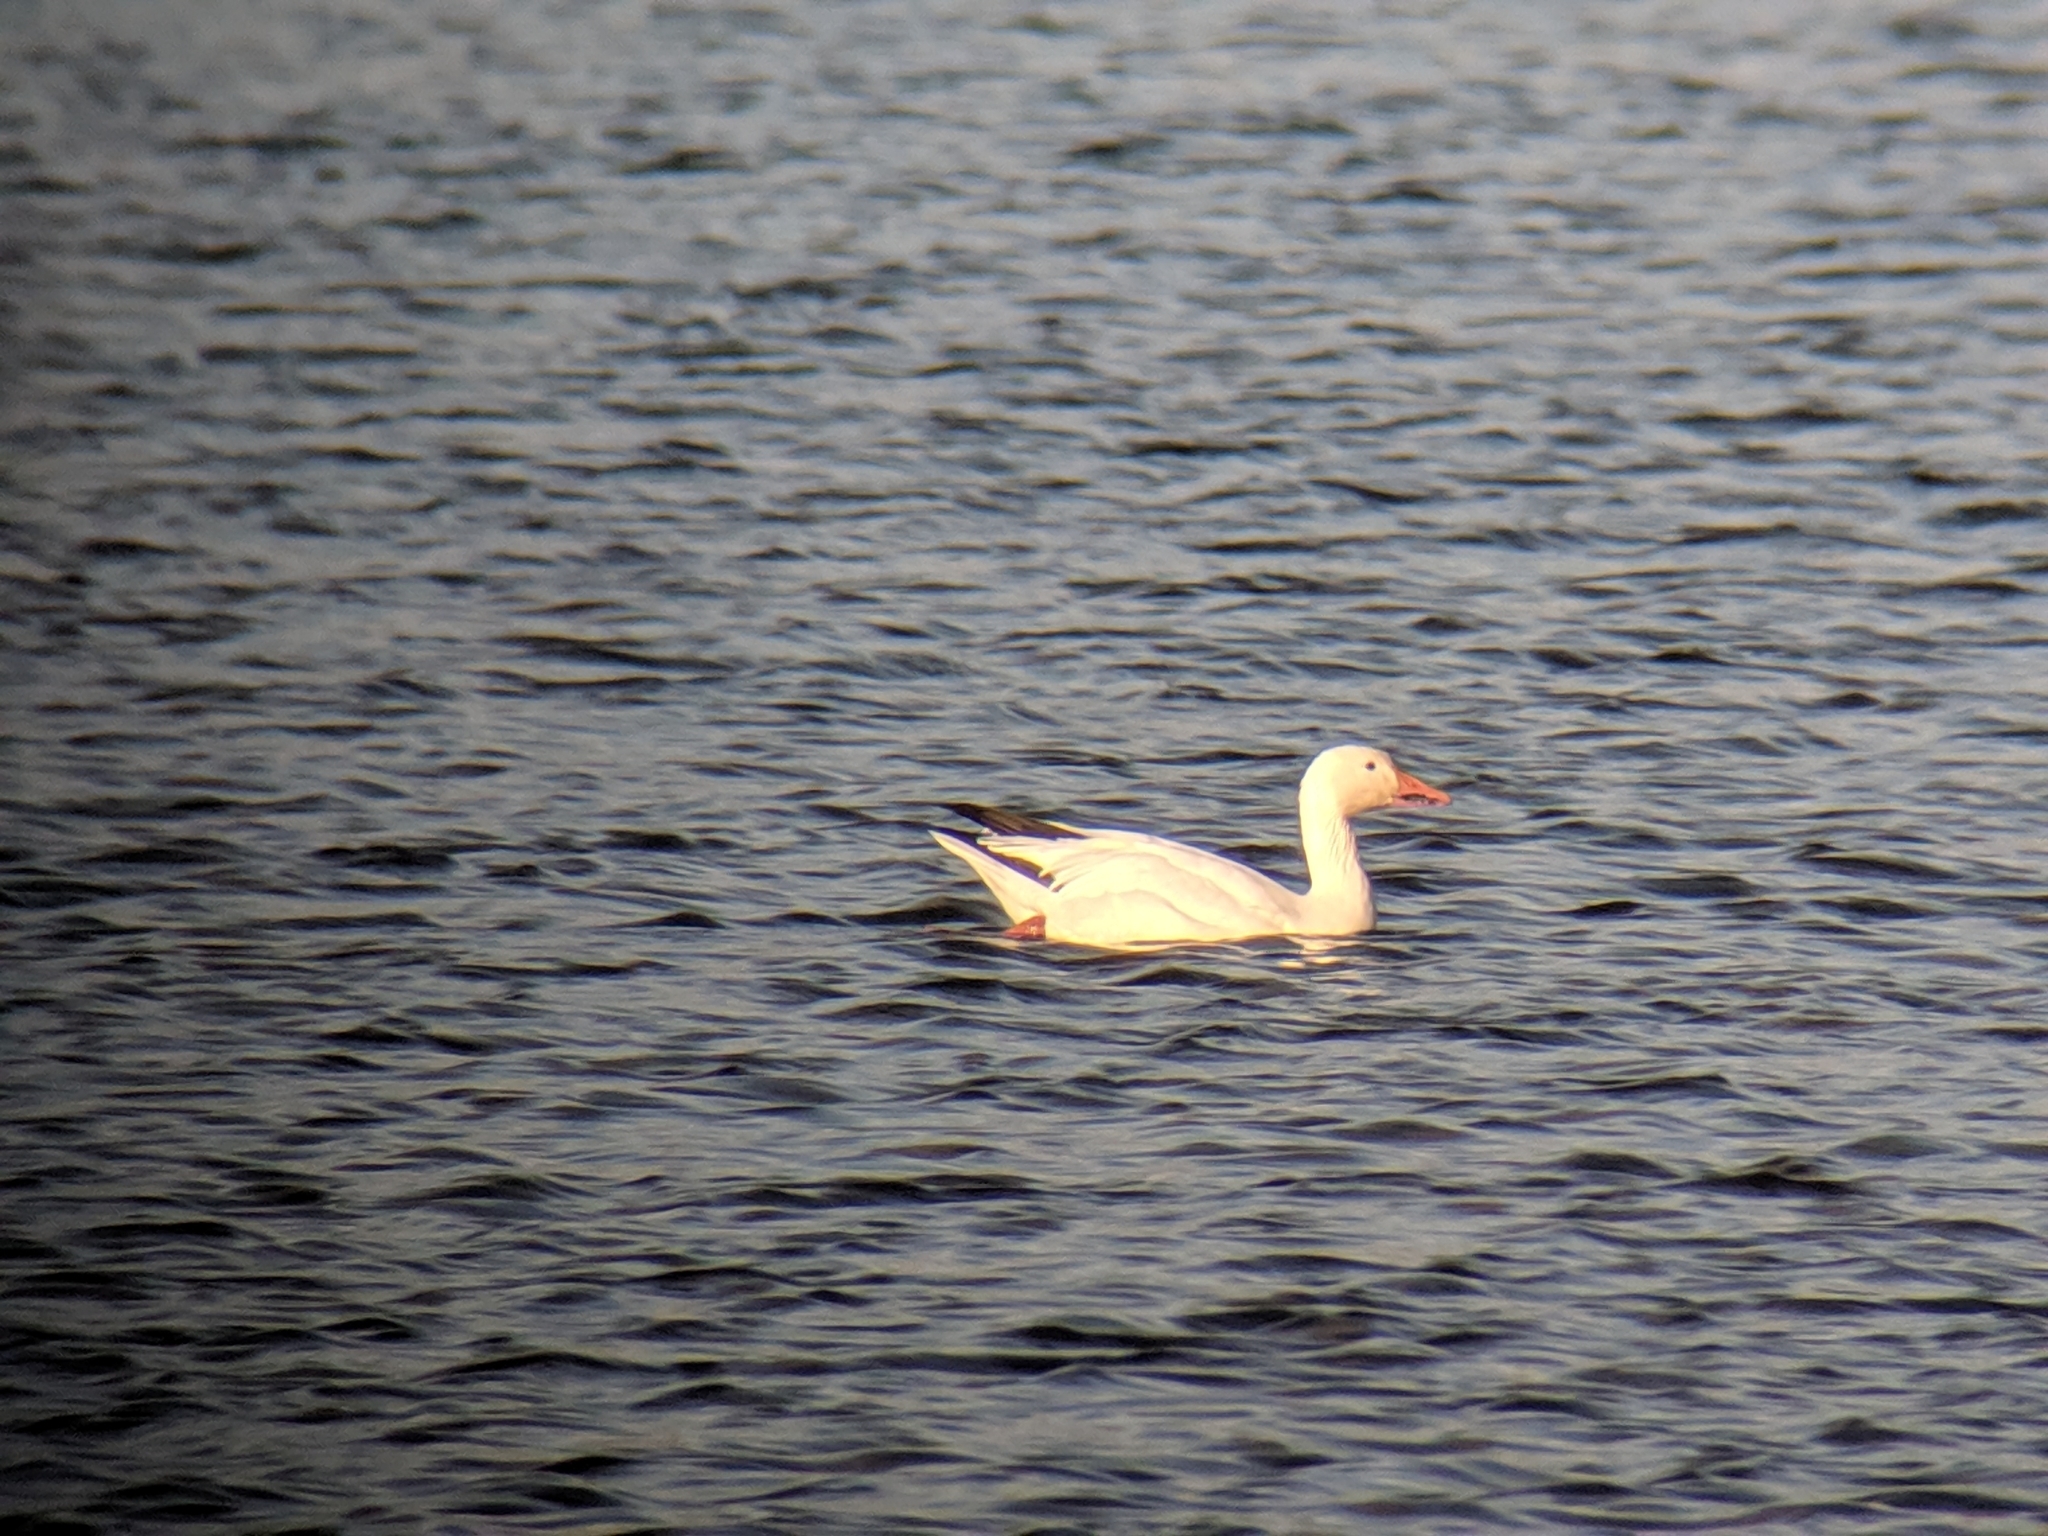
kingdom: Animalia
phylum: Chordata
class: Aves
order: Anseriformes
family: Anatidae
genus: Anser
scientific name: Anser caerulescens
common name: Snow goose
